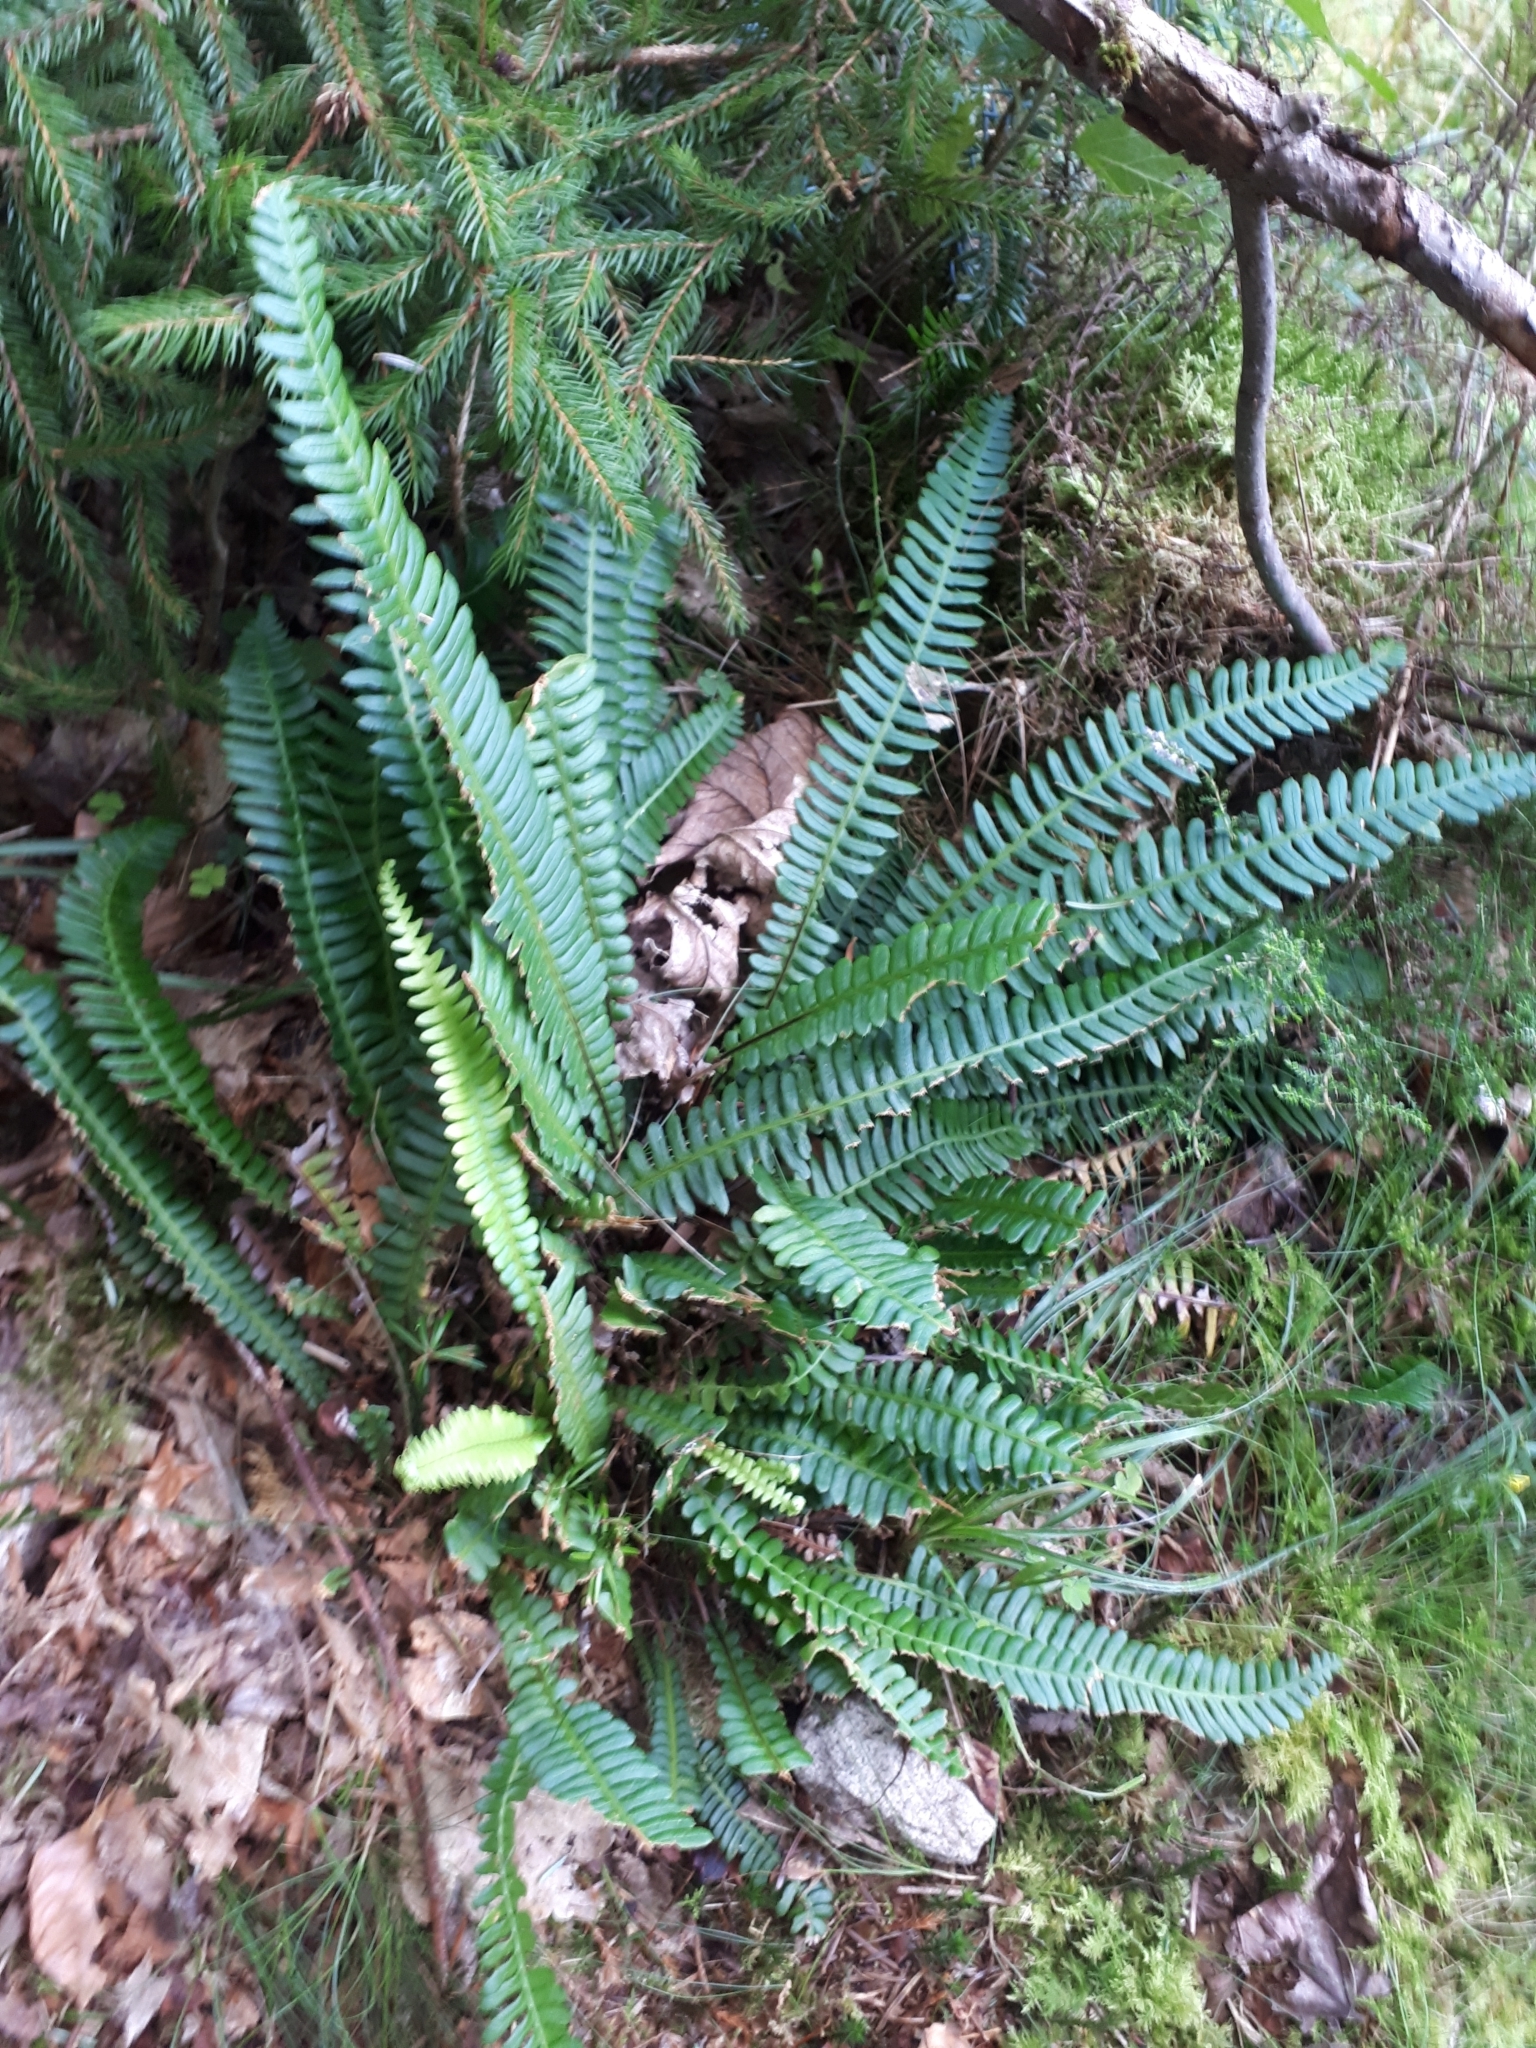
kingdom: Plantae
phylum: Tracheophyta
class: Polypodiopsida
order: Polypodiales
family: Blechnaceae
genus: Struthiopteris
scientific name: Struthiopteris spicant
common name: Deer fern
